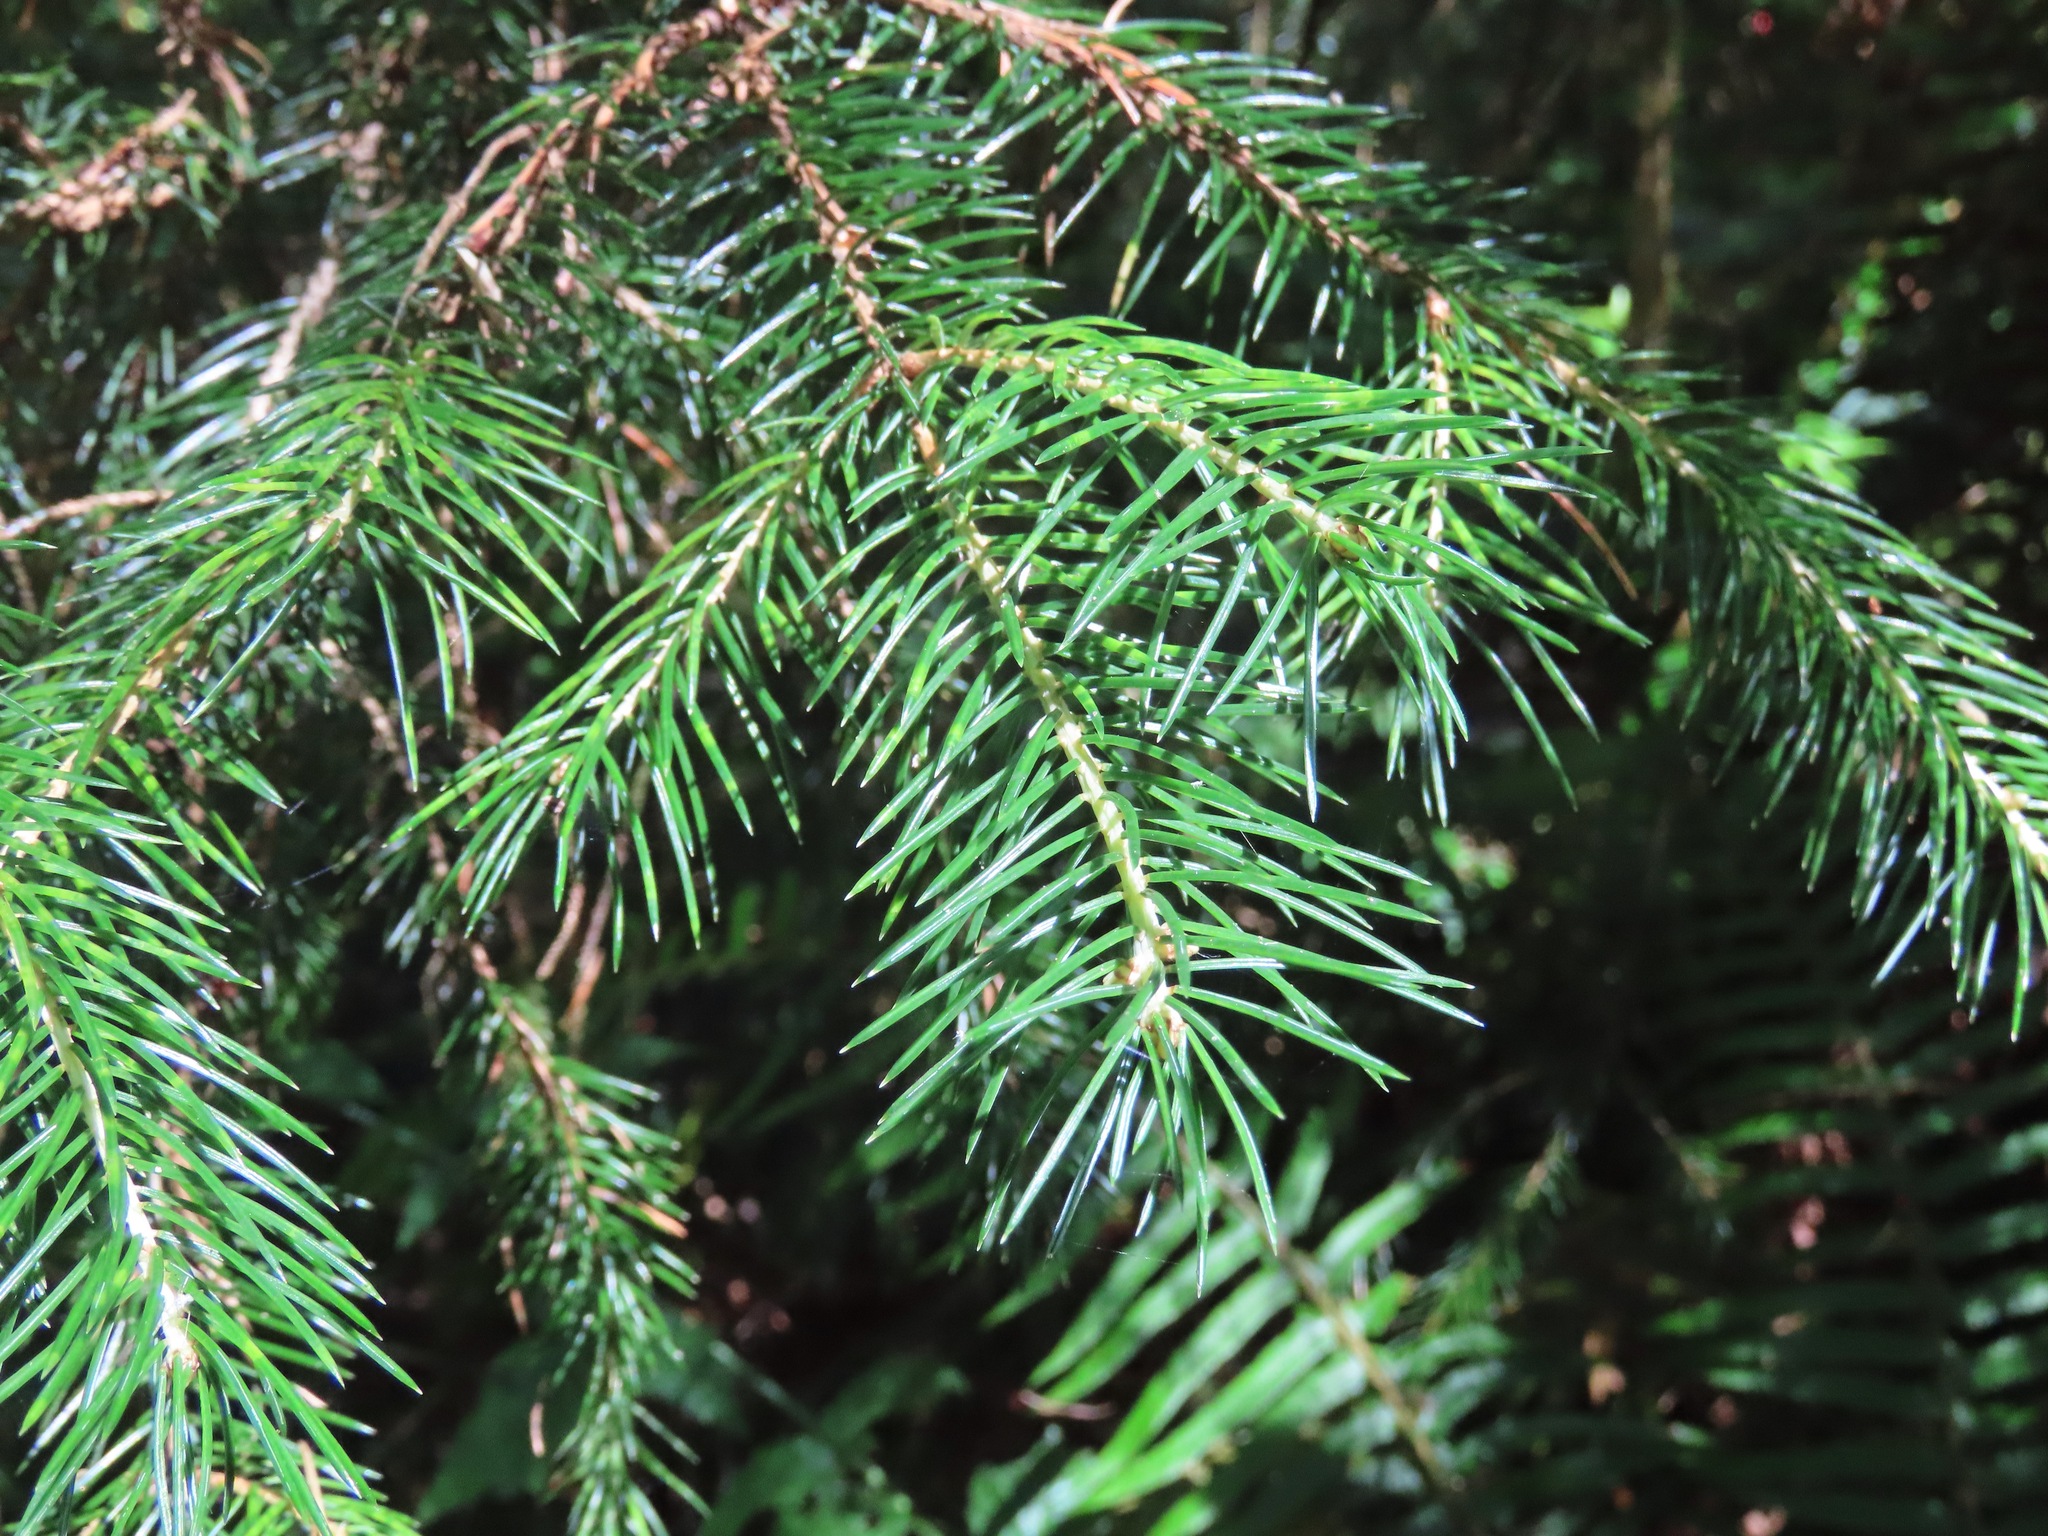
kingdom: Plantae
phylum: Tracheophyta
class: Pinopsida
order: Pinales
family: Pinaceae
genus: Picea
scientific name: Picea sitchensis
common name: Sitka spruce
